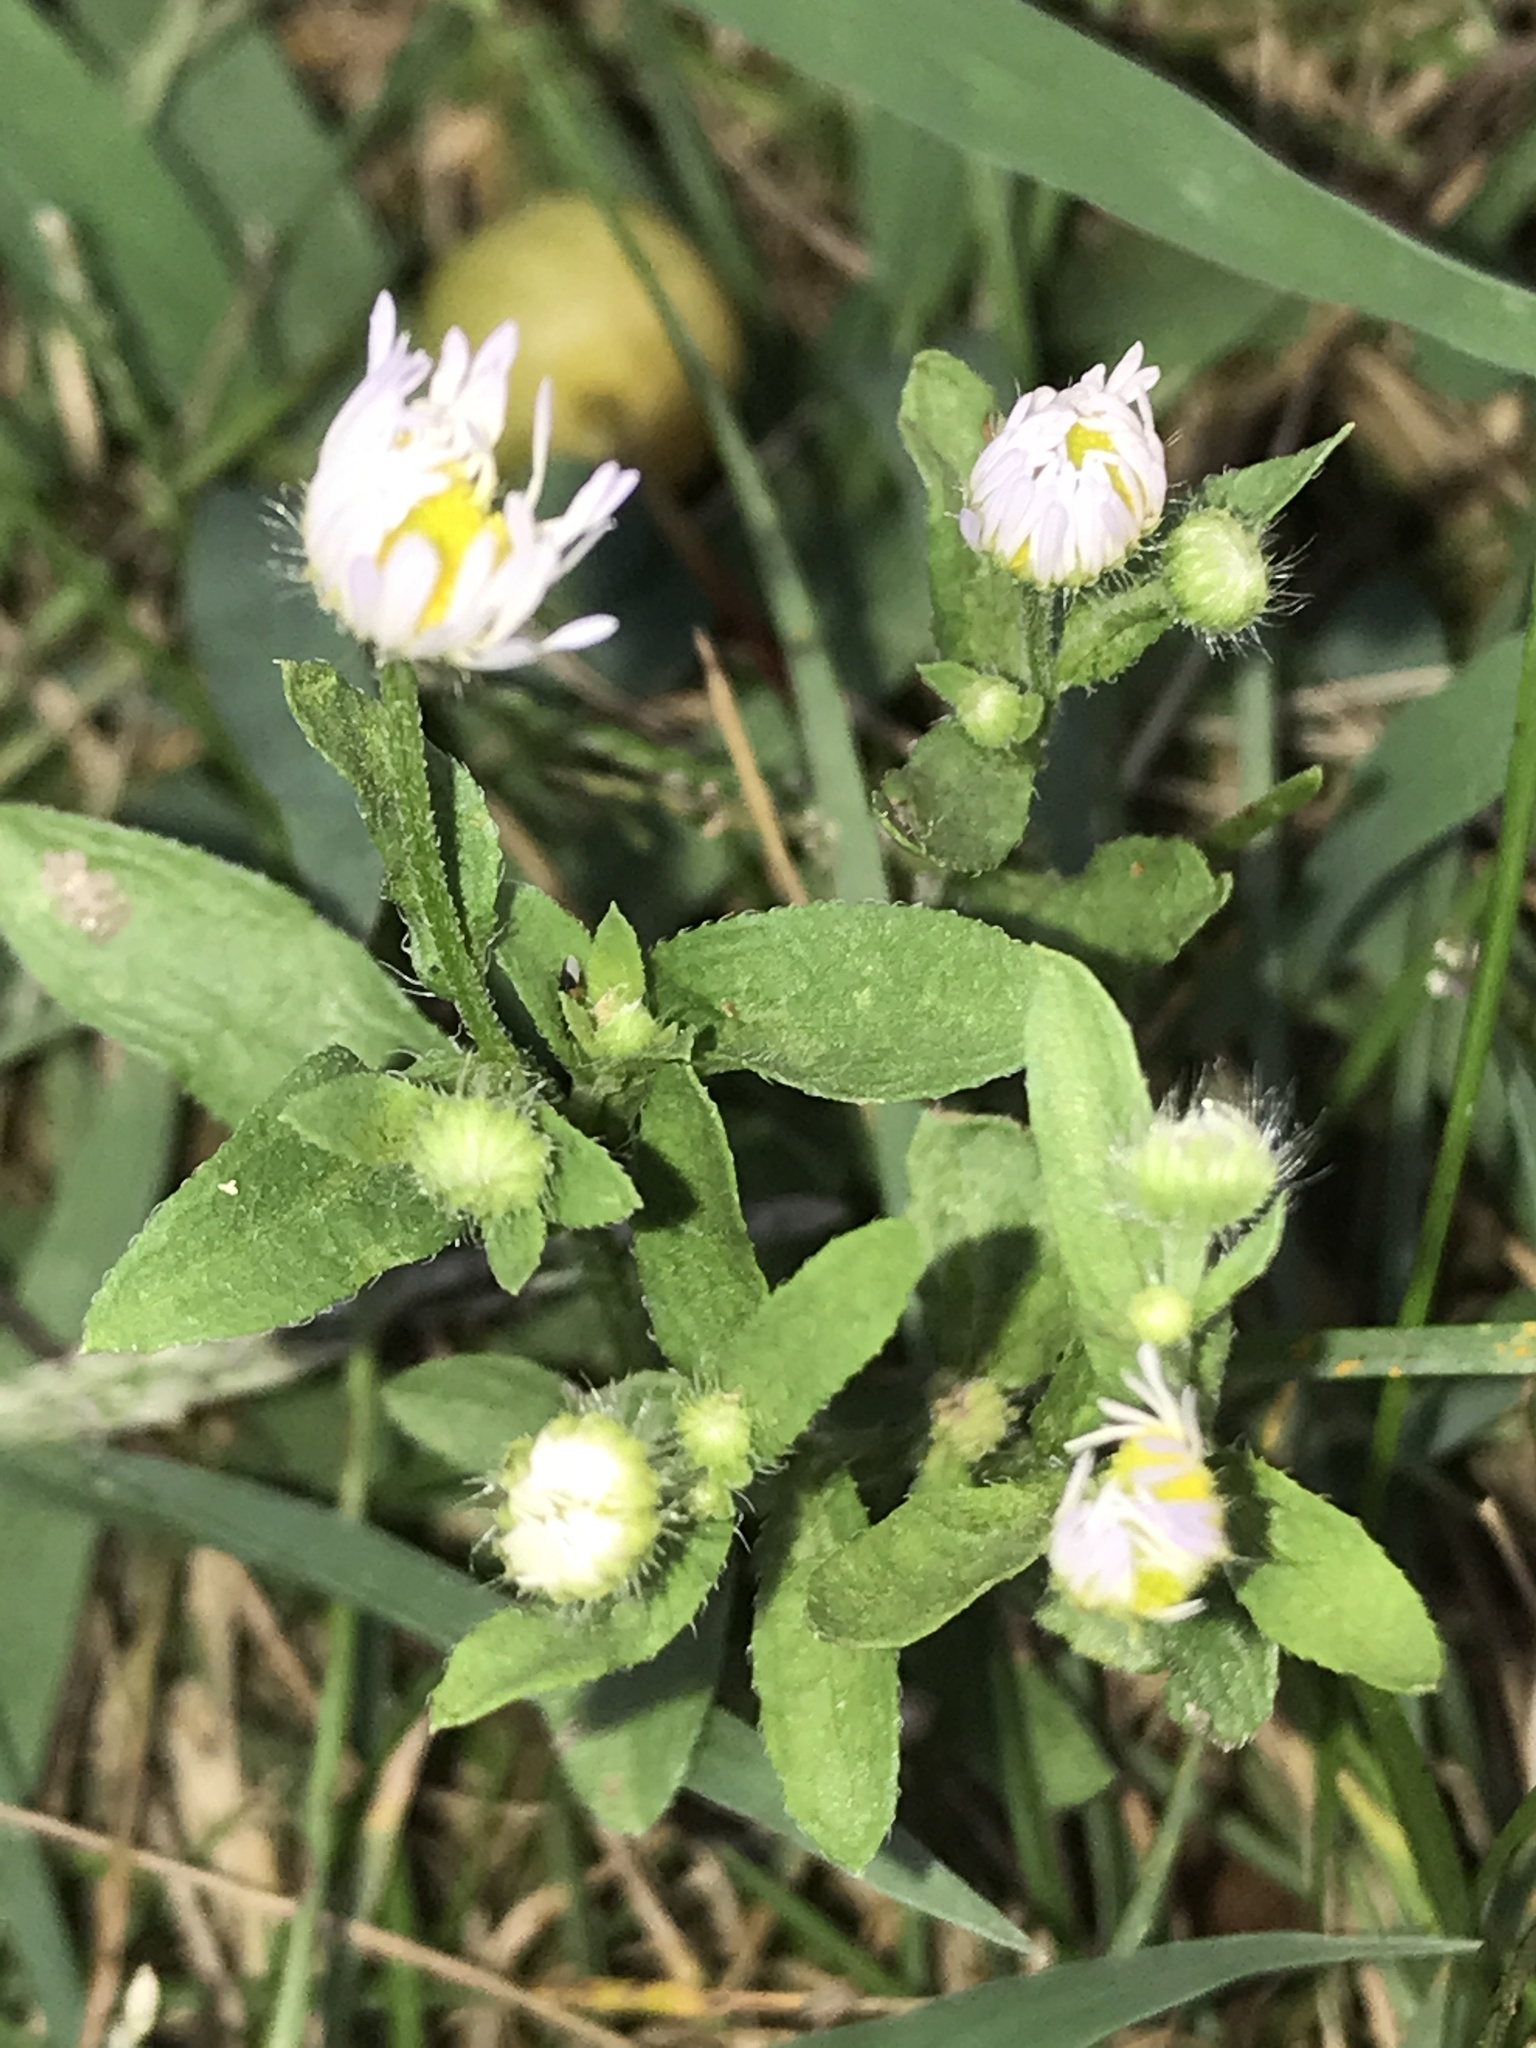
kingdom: Plantae
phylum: Tracheophyta
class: Magnoliopsida
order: Asterales
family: Asteraceae
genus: Erigeron
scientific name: Erigeron strigosus
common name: Common eastern fleabane
